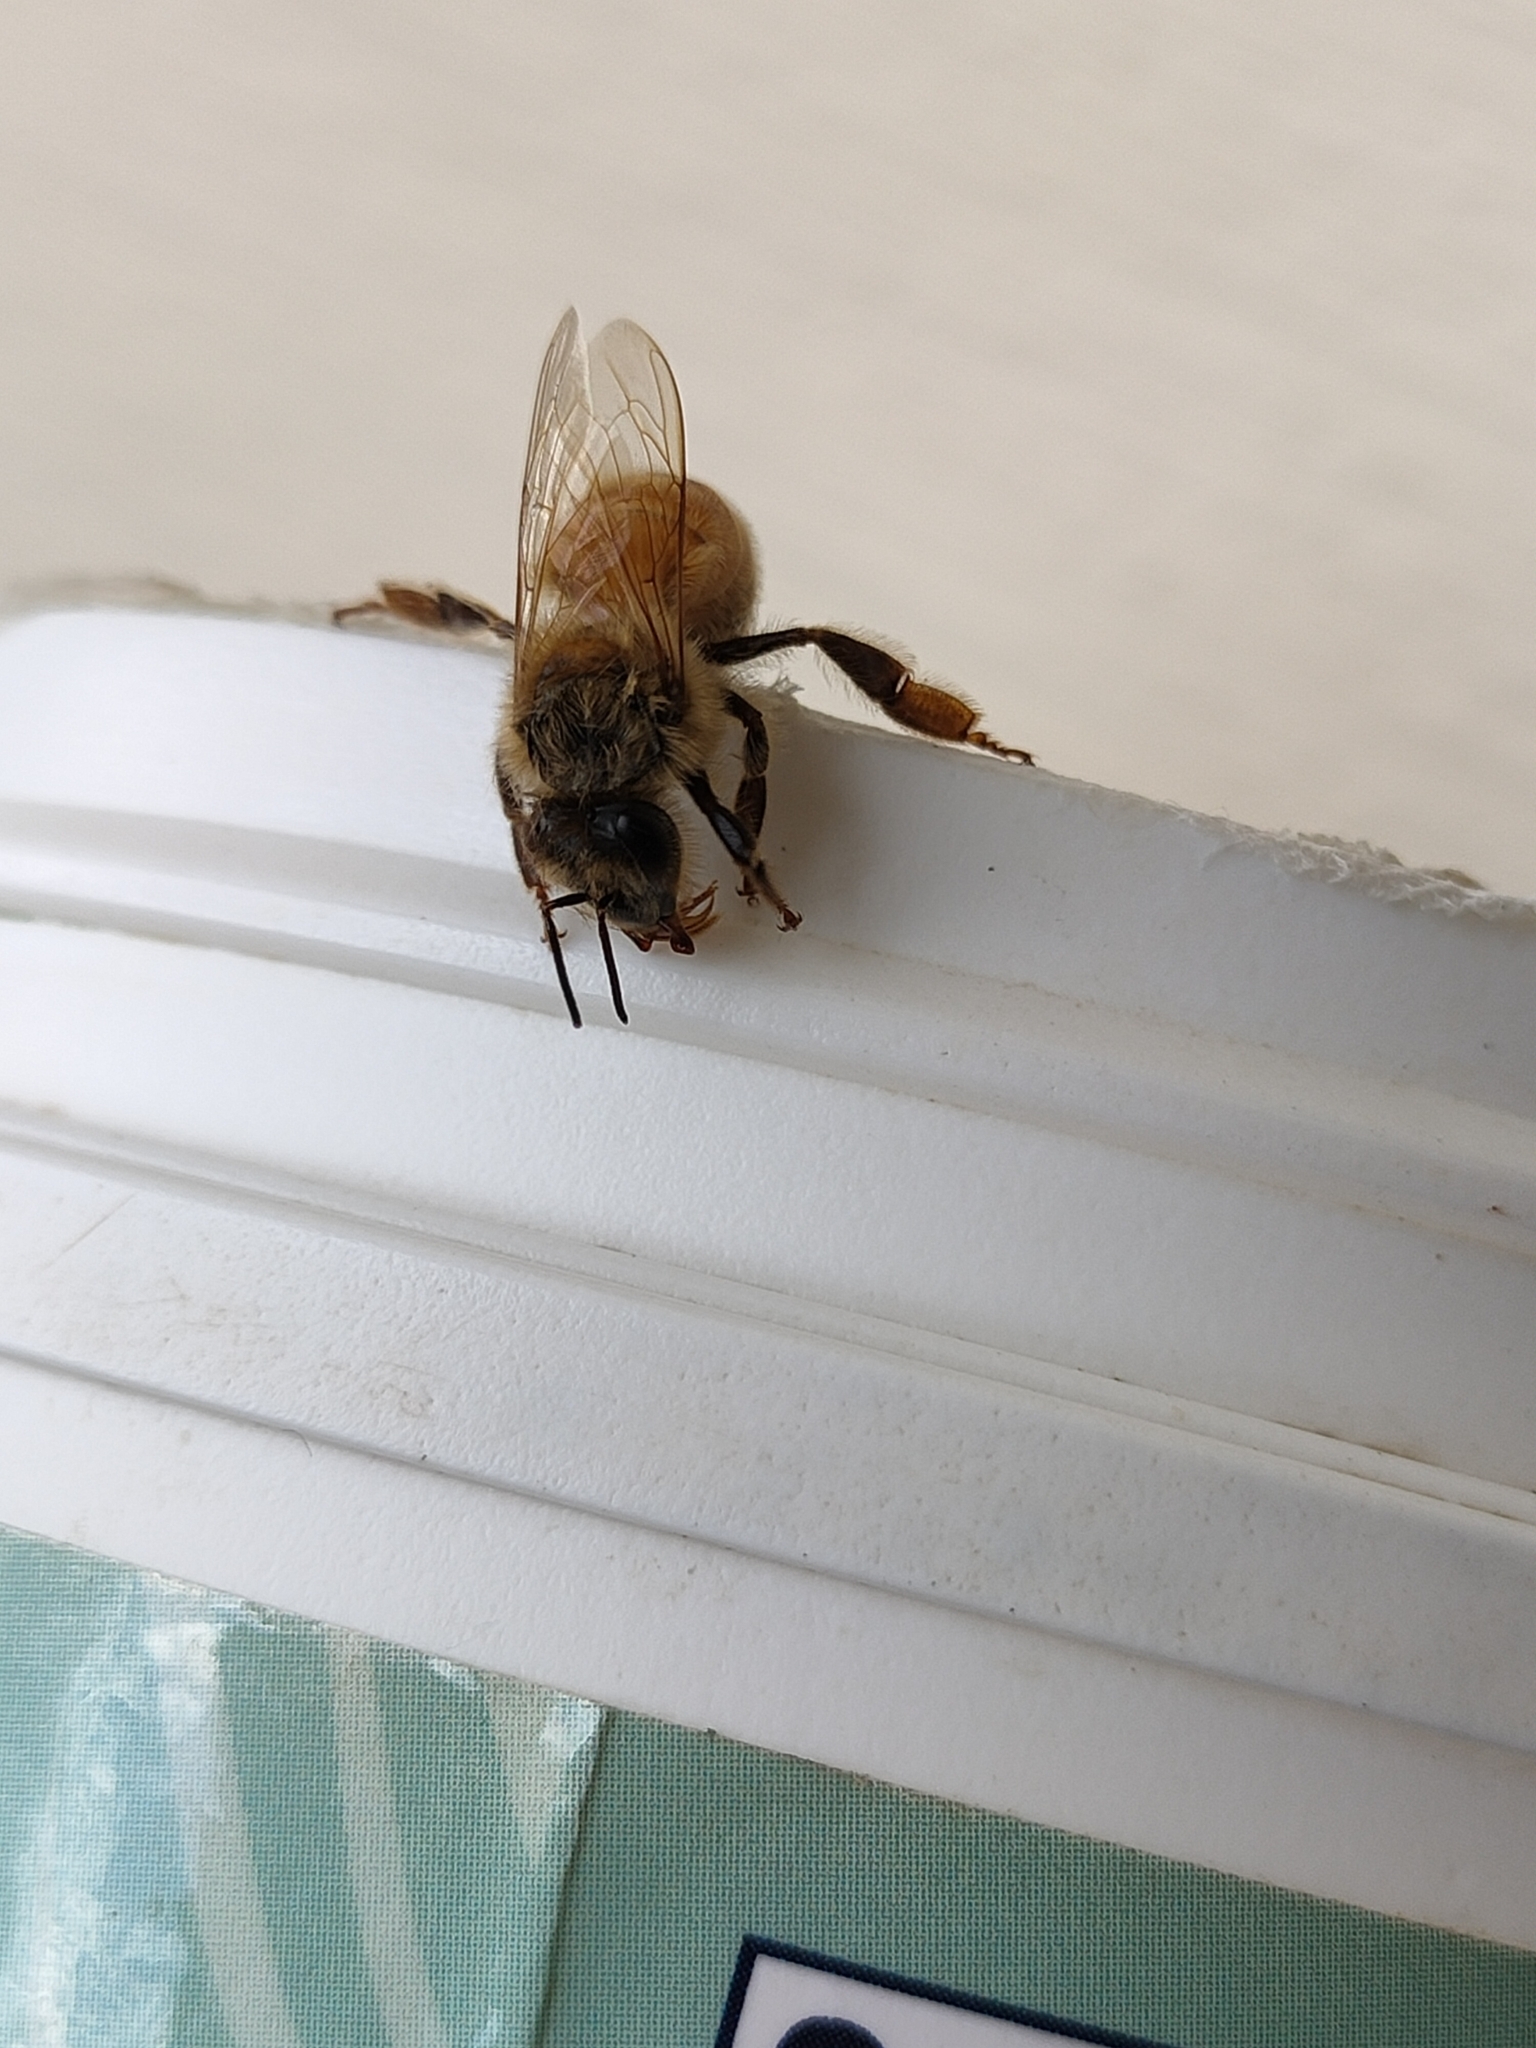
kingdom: Animalia
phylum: Arthropoda
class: Insecta
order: Hymenoptera
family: Apidae
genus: Apis
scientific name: Apis mellifera
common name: Honey bee
